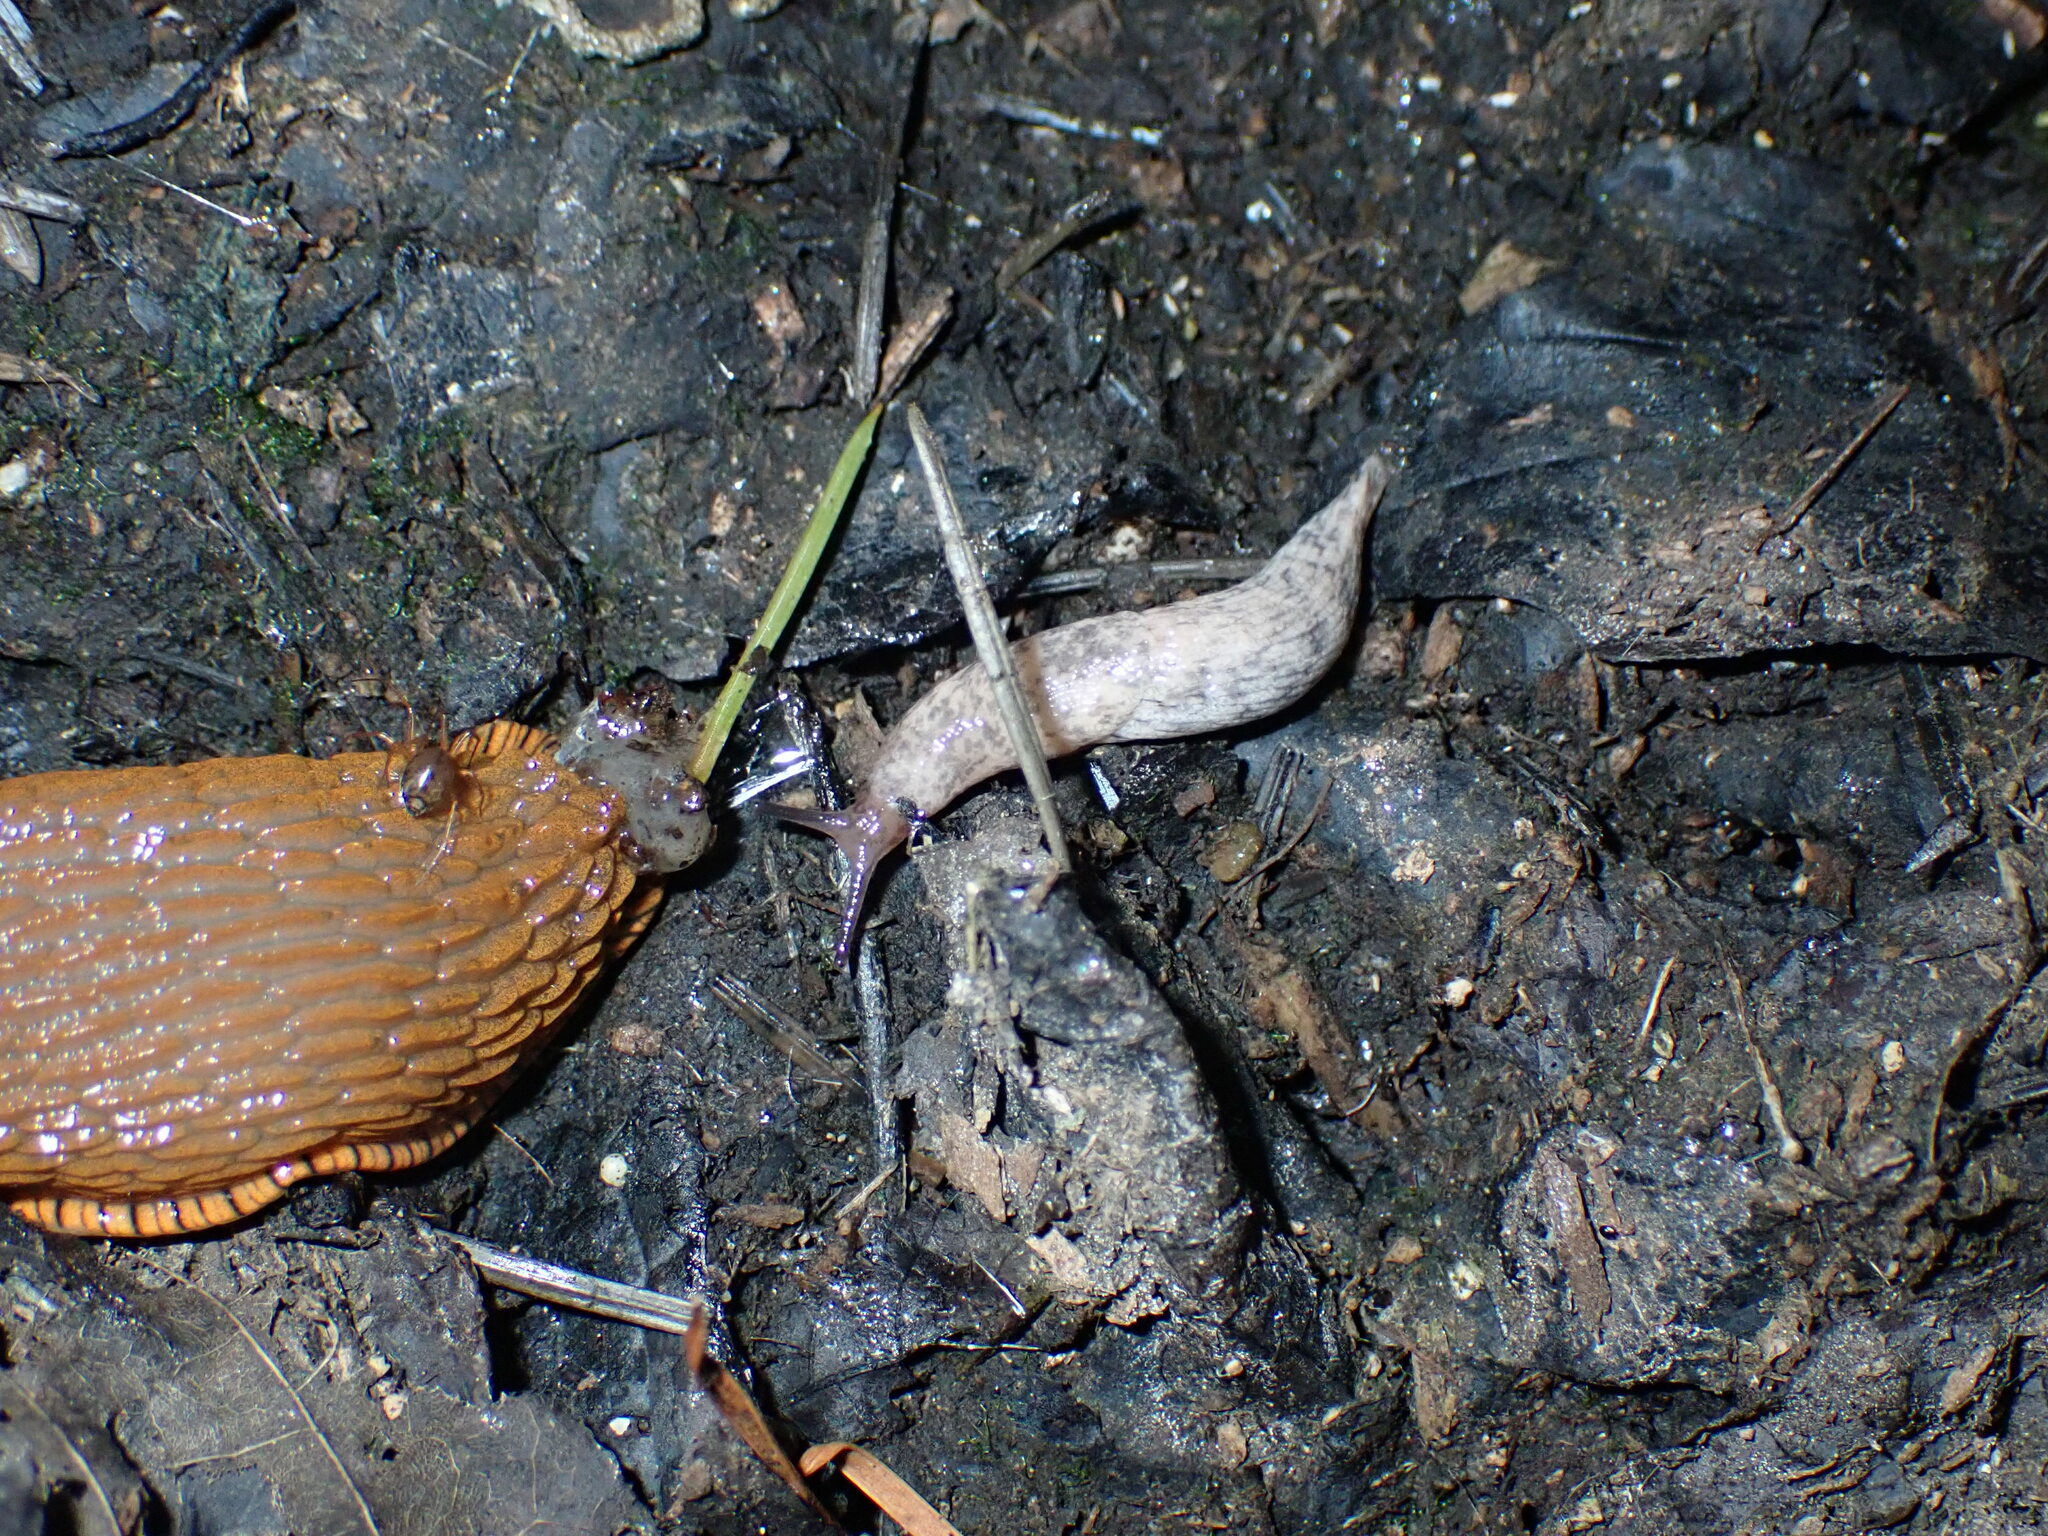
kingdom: Animalia
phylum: Mollusca
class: Gastropoda
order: Stylommatophora
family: Agriolimacidae
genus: Deroceras
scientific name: Deroceras reticulatum
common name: Gray field slug
